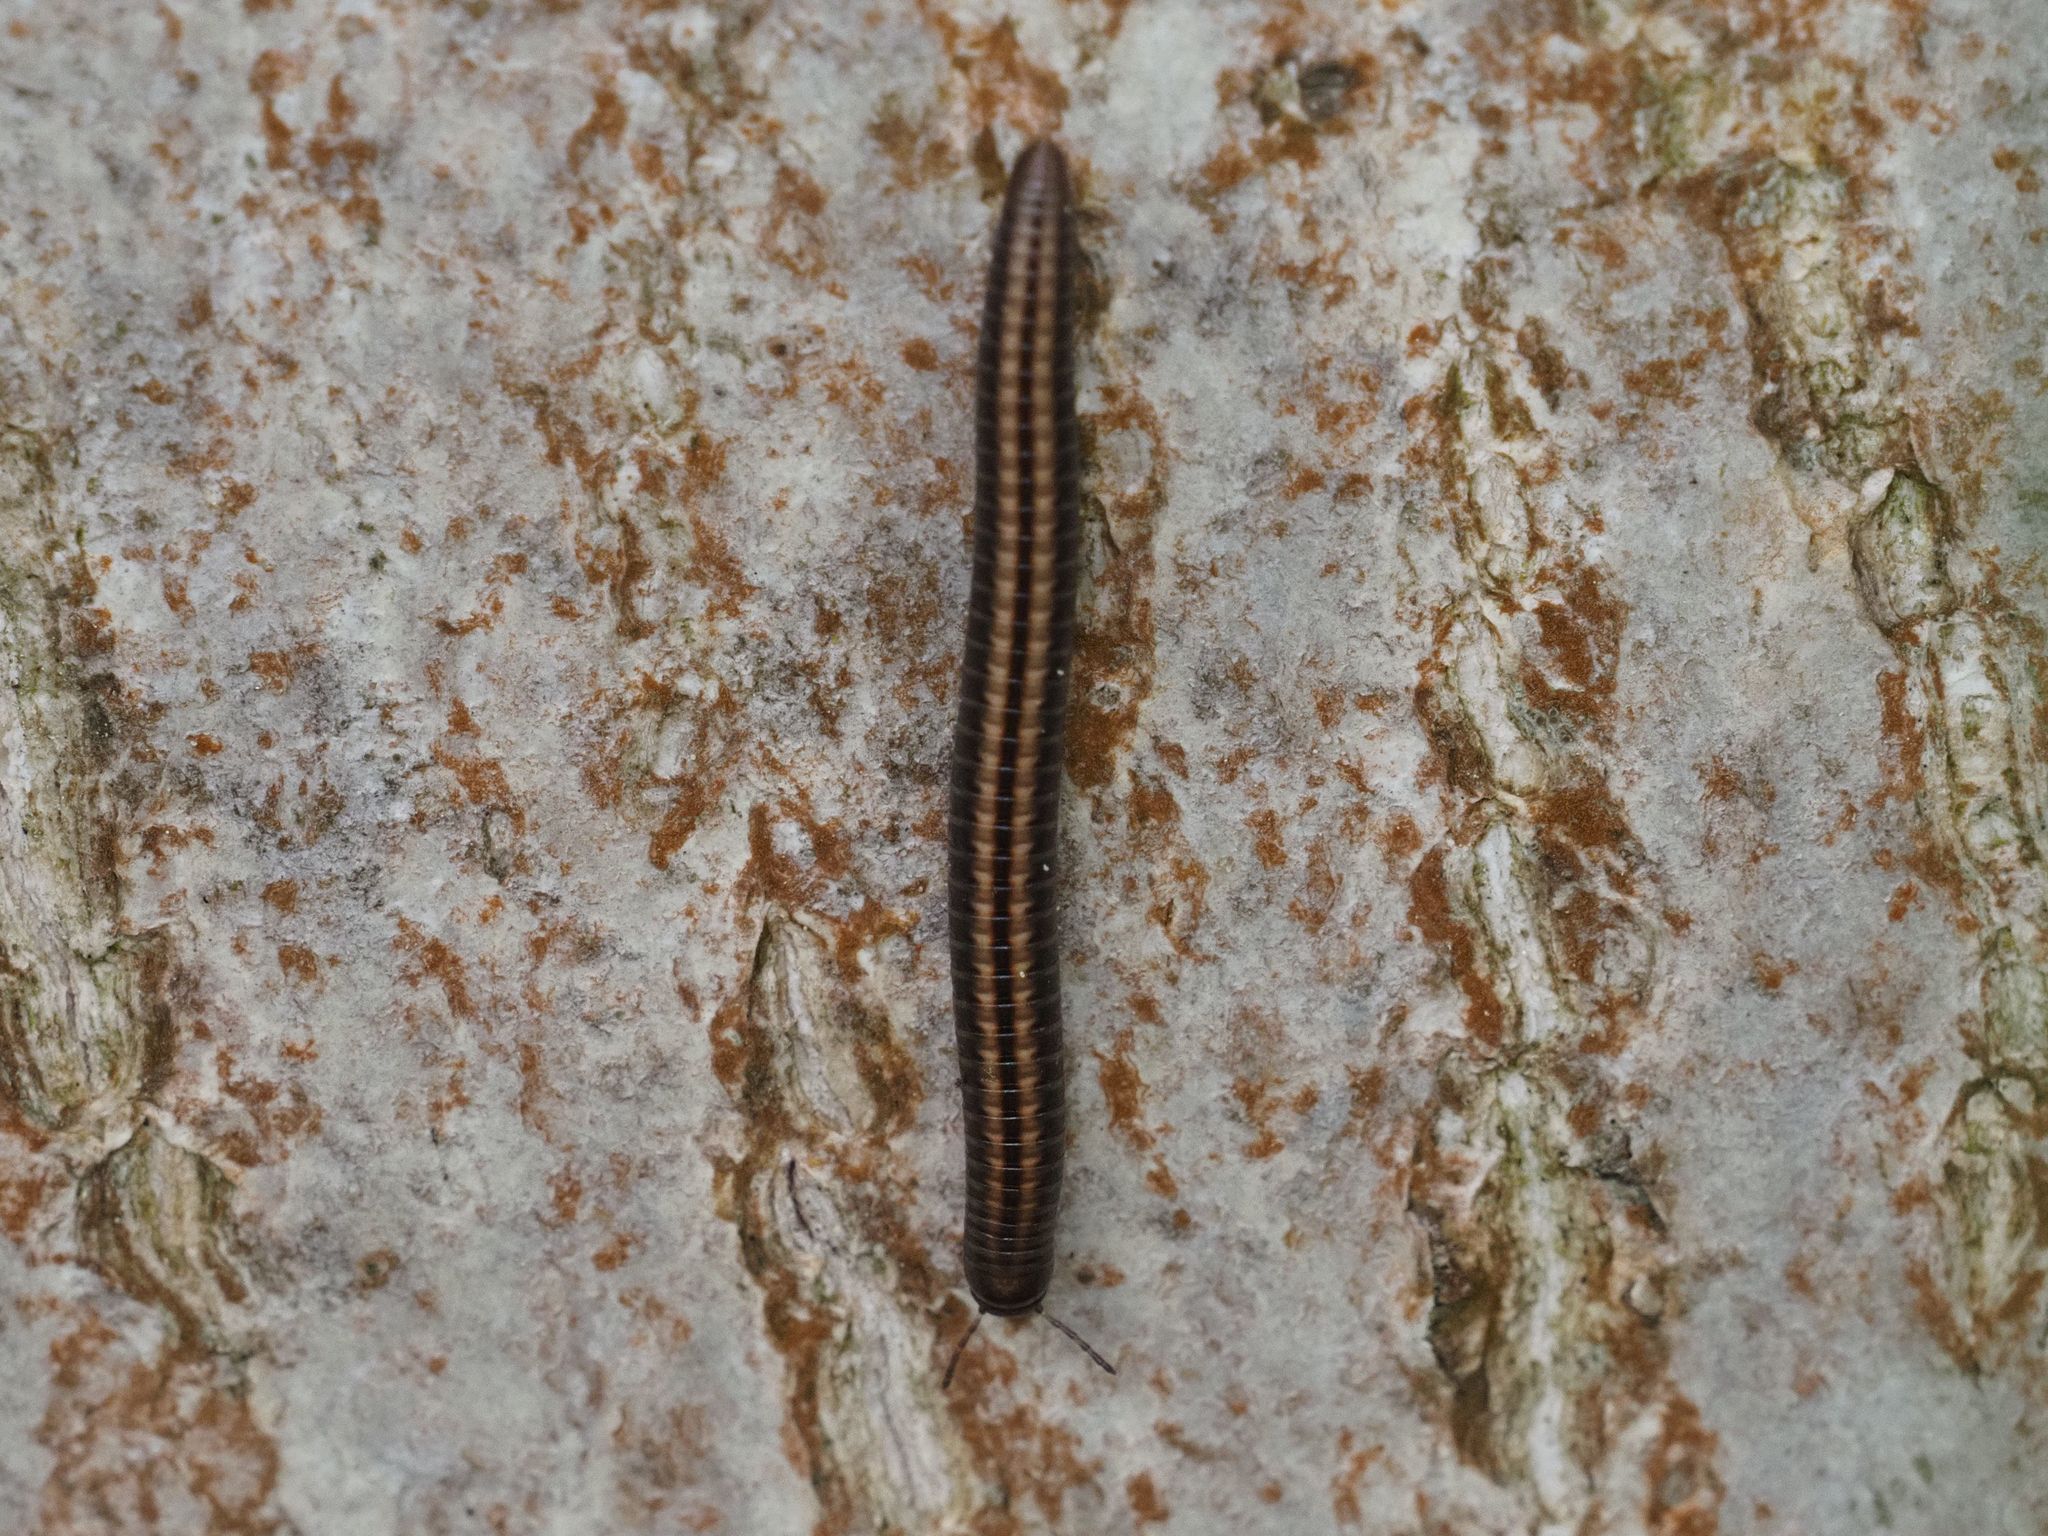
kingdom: Animalia
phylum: Arthropoda
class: Diplopoda
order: Julida
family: Julidae
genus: Ommatoiulus
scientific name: Ommatoiulus sabulosus
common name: Striped millipede
